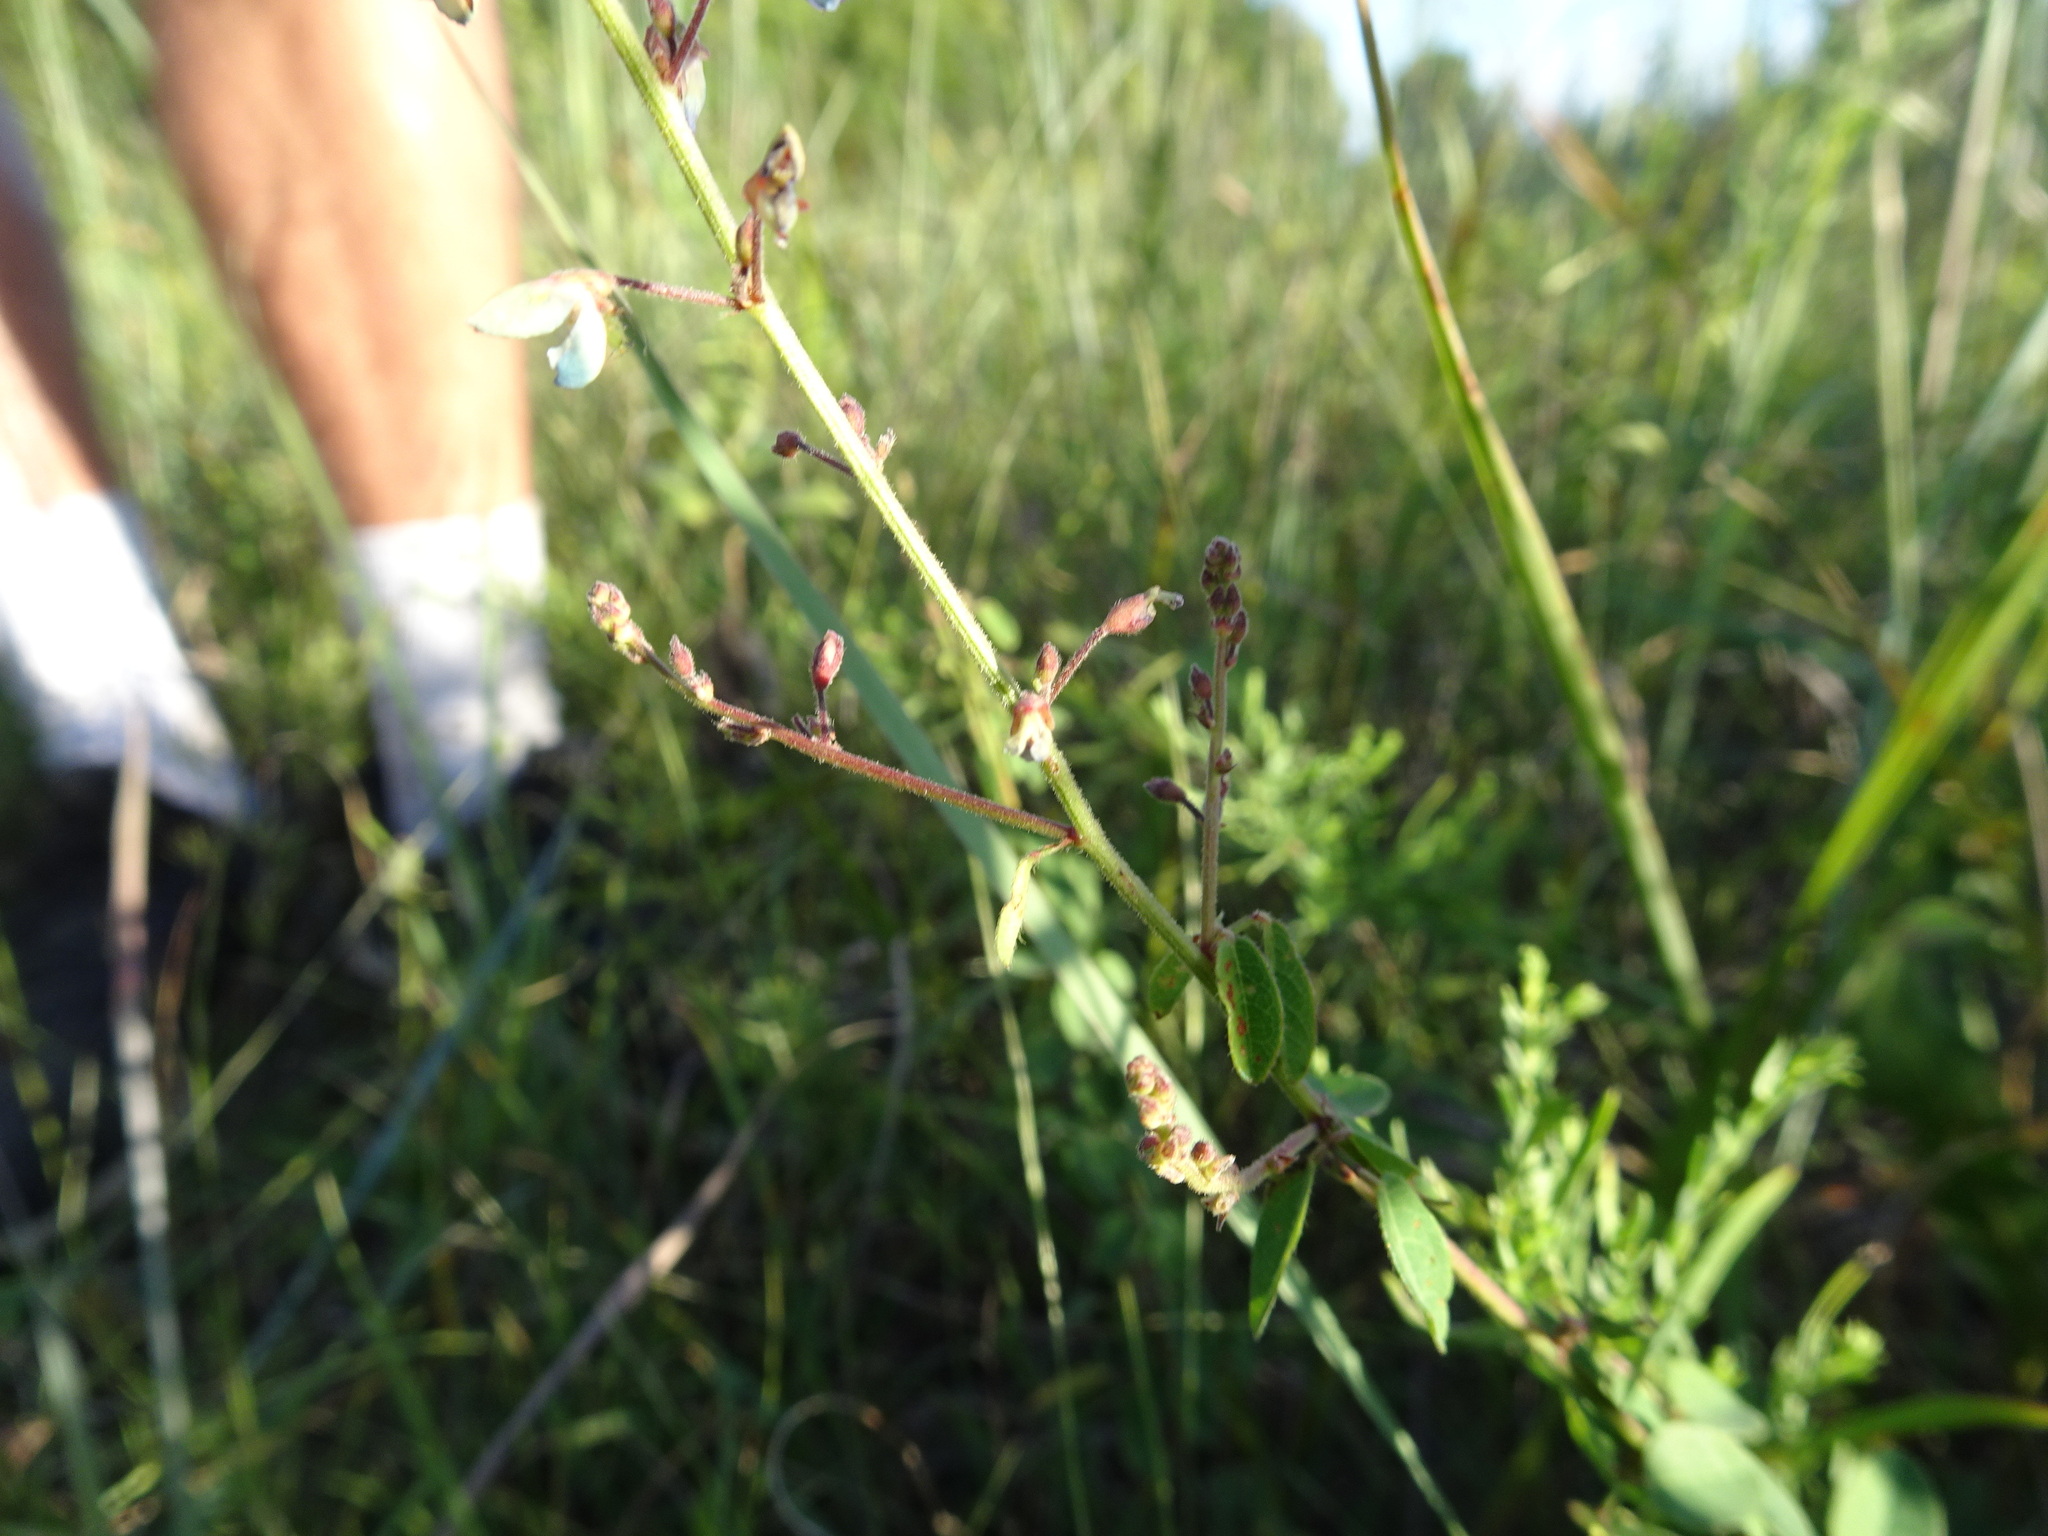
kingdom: Plantae
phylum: Tracheophyta
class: Magnoliopsida
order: Fabales
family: Fabaceae
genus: Desmodium
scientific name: Desmodium ciliare
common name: Hairy small-leaf ticktrefoil
